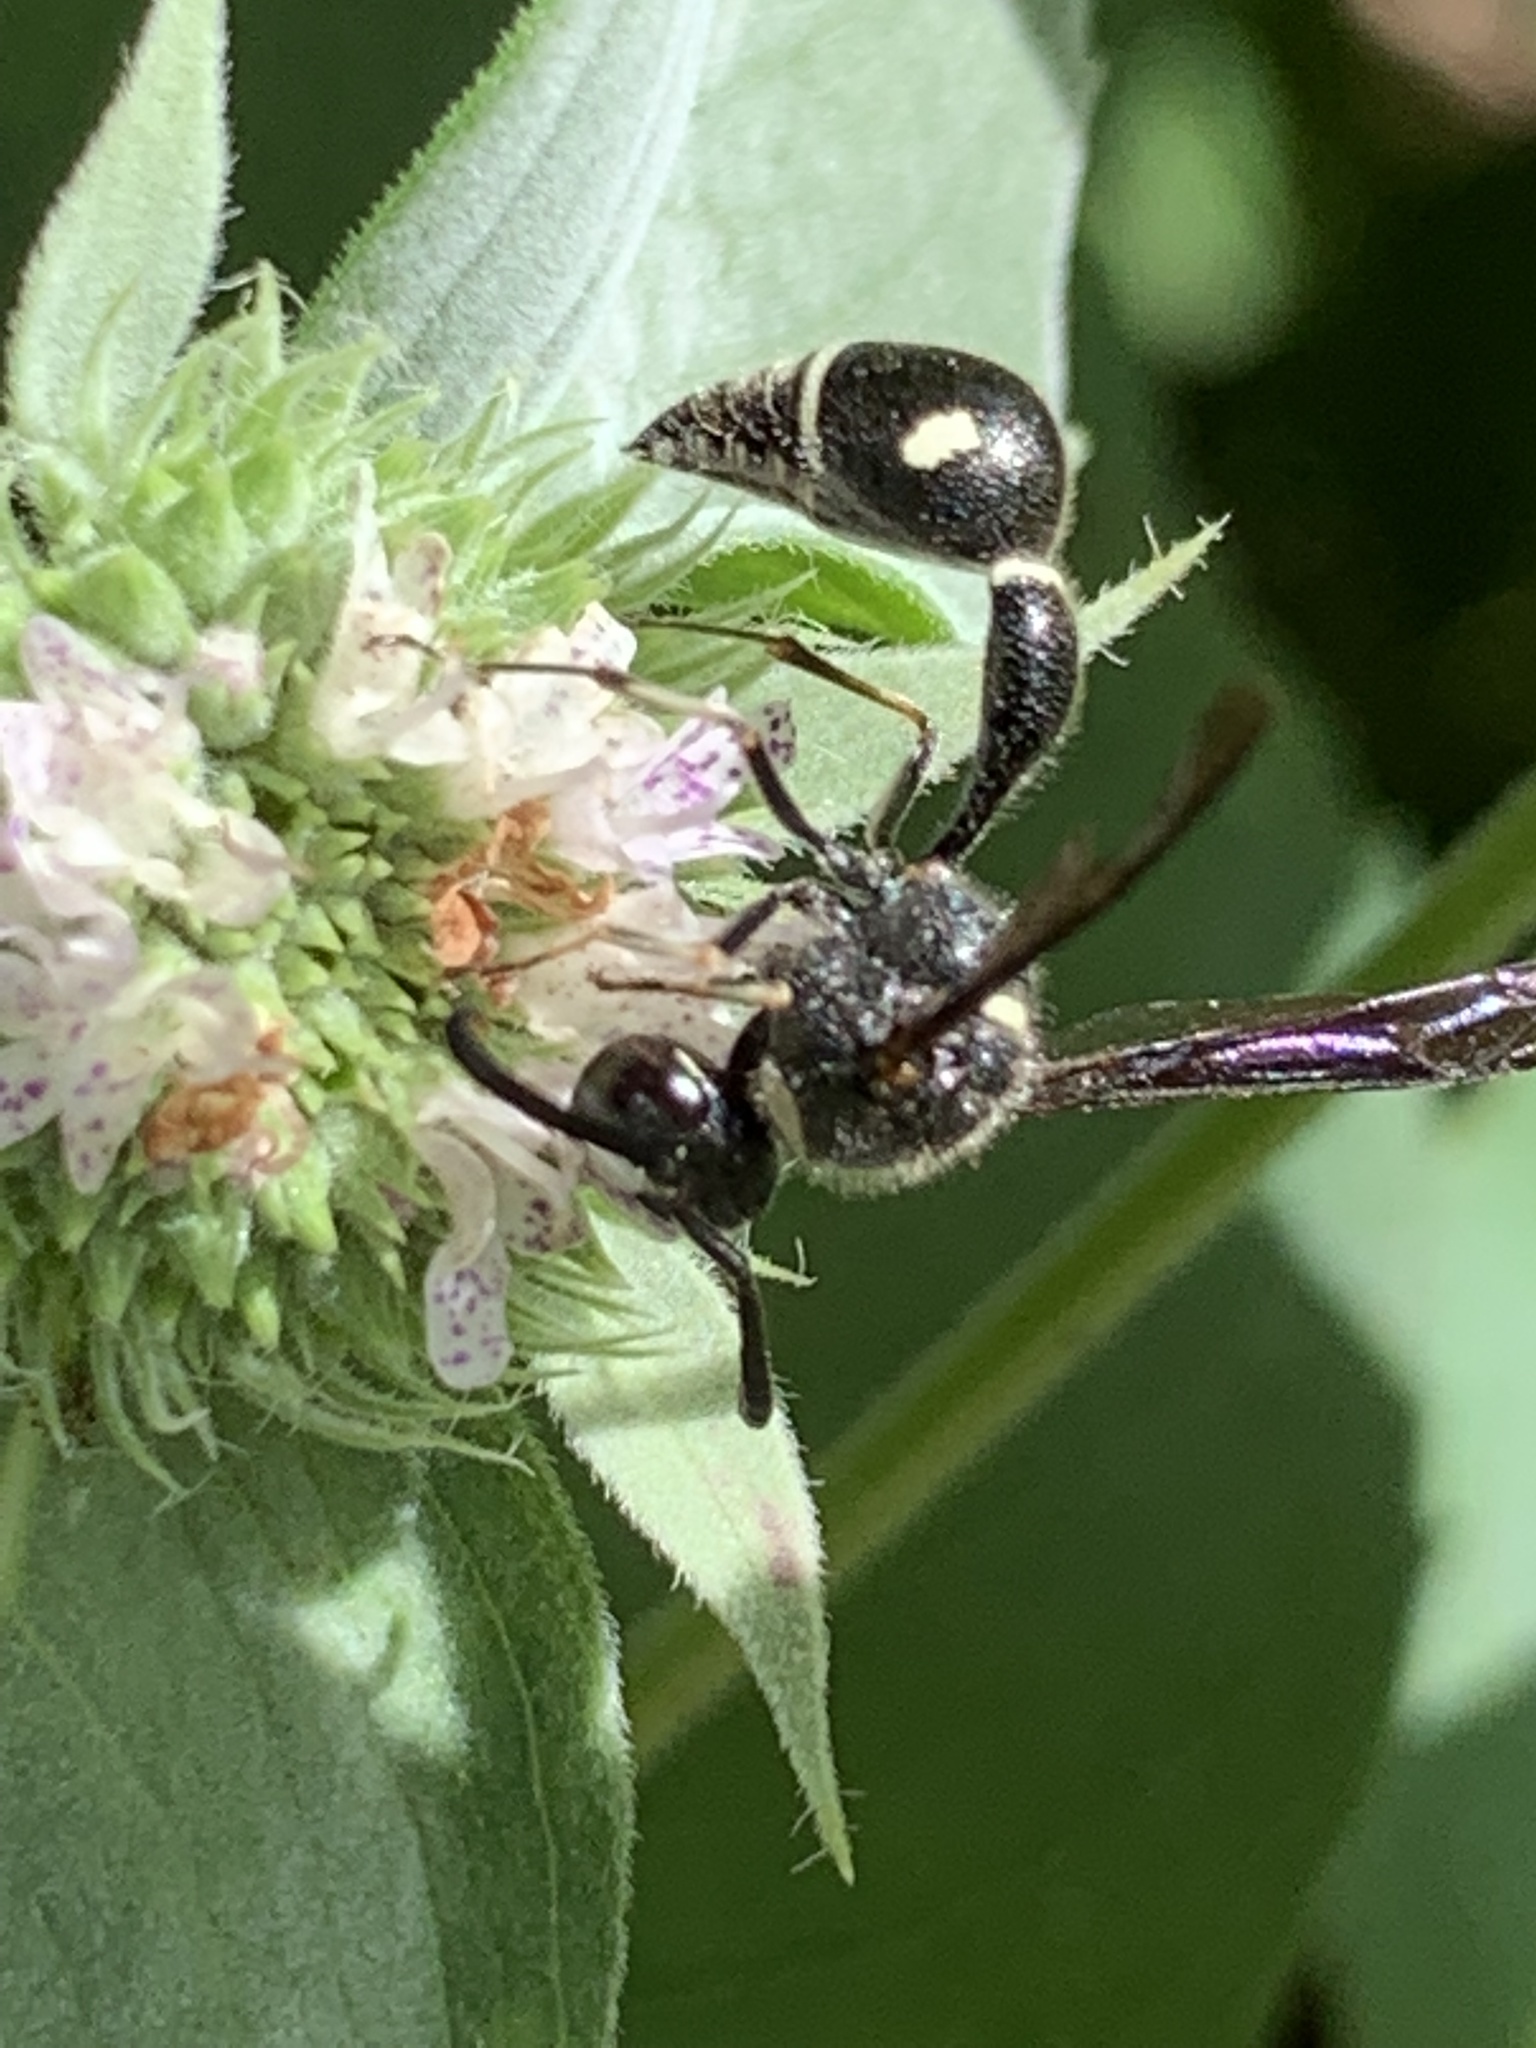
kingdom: Animalia
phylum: Arthropoda
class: Insecta
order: Hymenoptera
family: Vespidae
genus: Eumenes
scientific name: Eumenes fraternus
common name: Fraternal potter wasp
